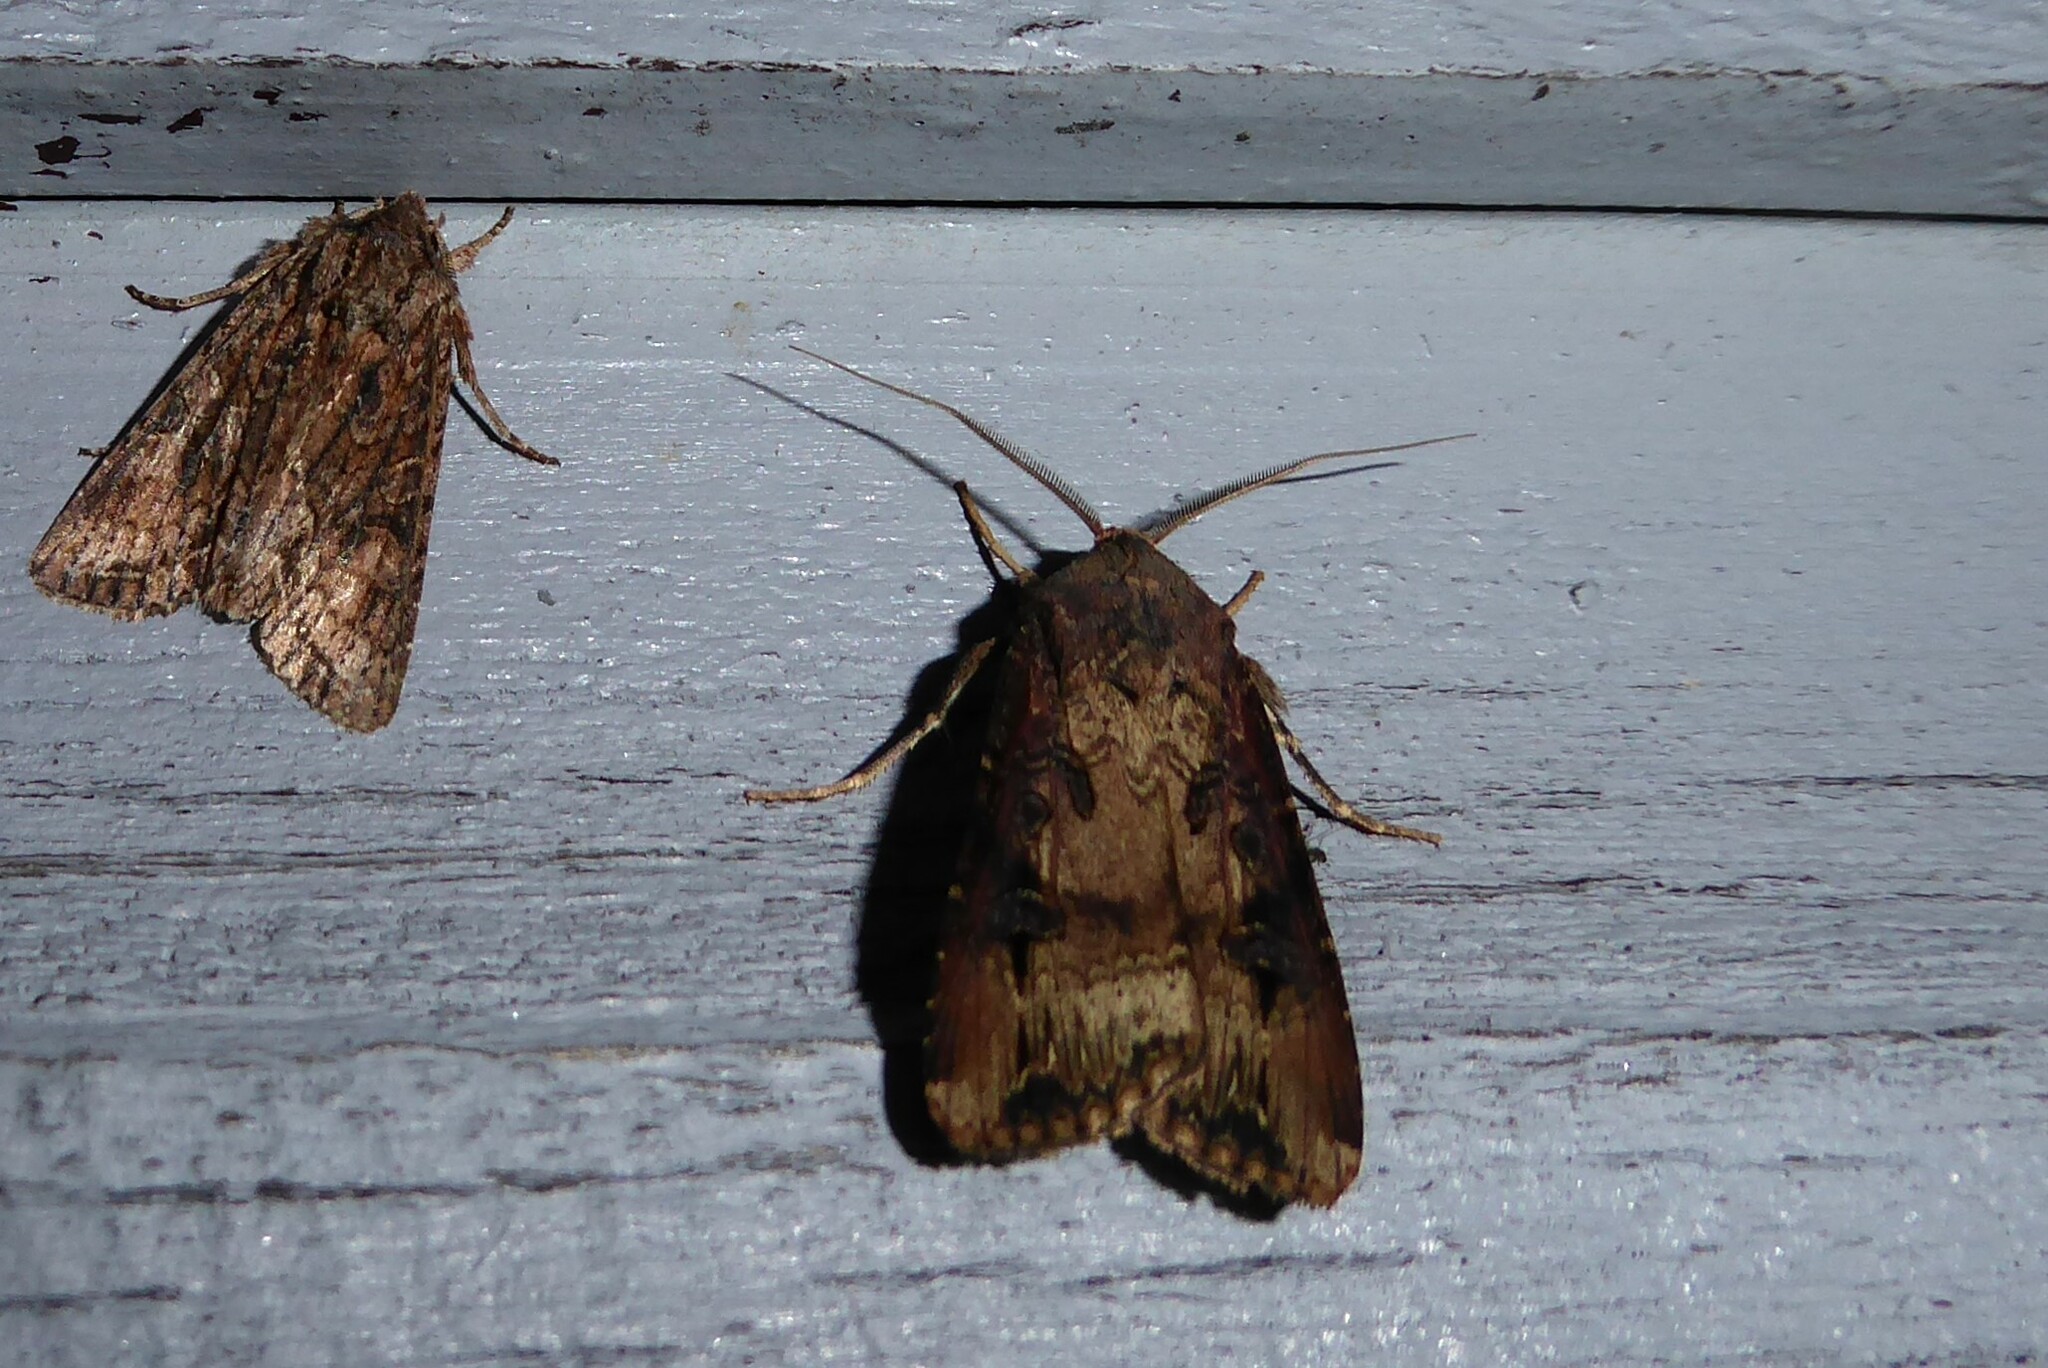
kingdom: Animalia
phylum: Arthropoda
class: Insecta
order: Lepidoptera
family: Noctuidae
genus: Agrotis
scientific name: Agrotis ipsilon
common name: Dark sword-grass
